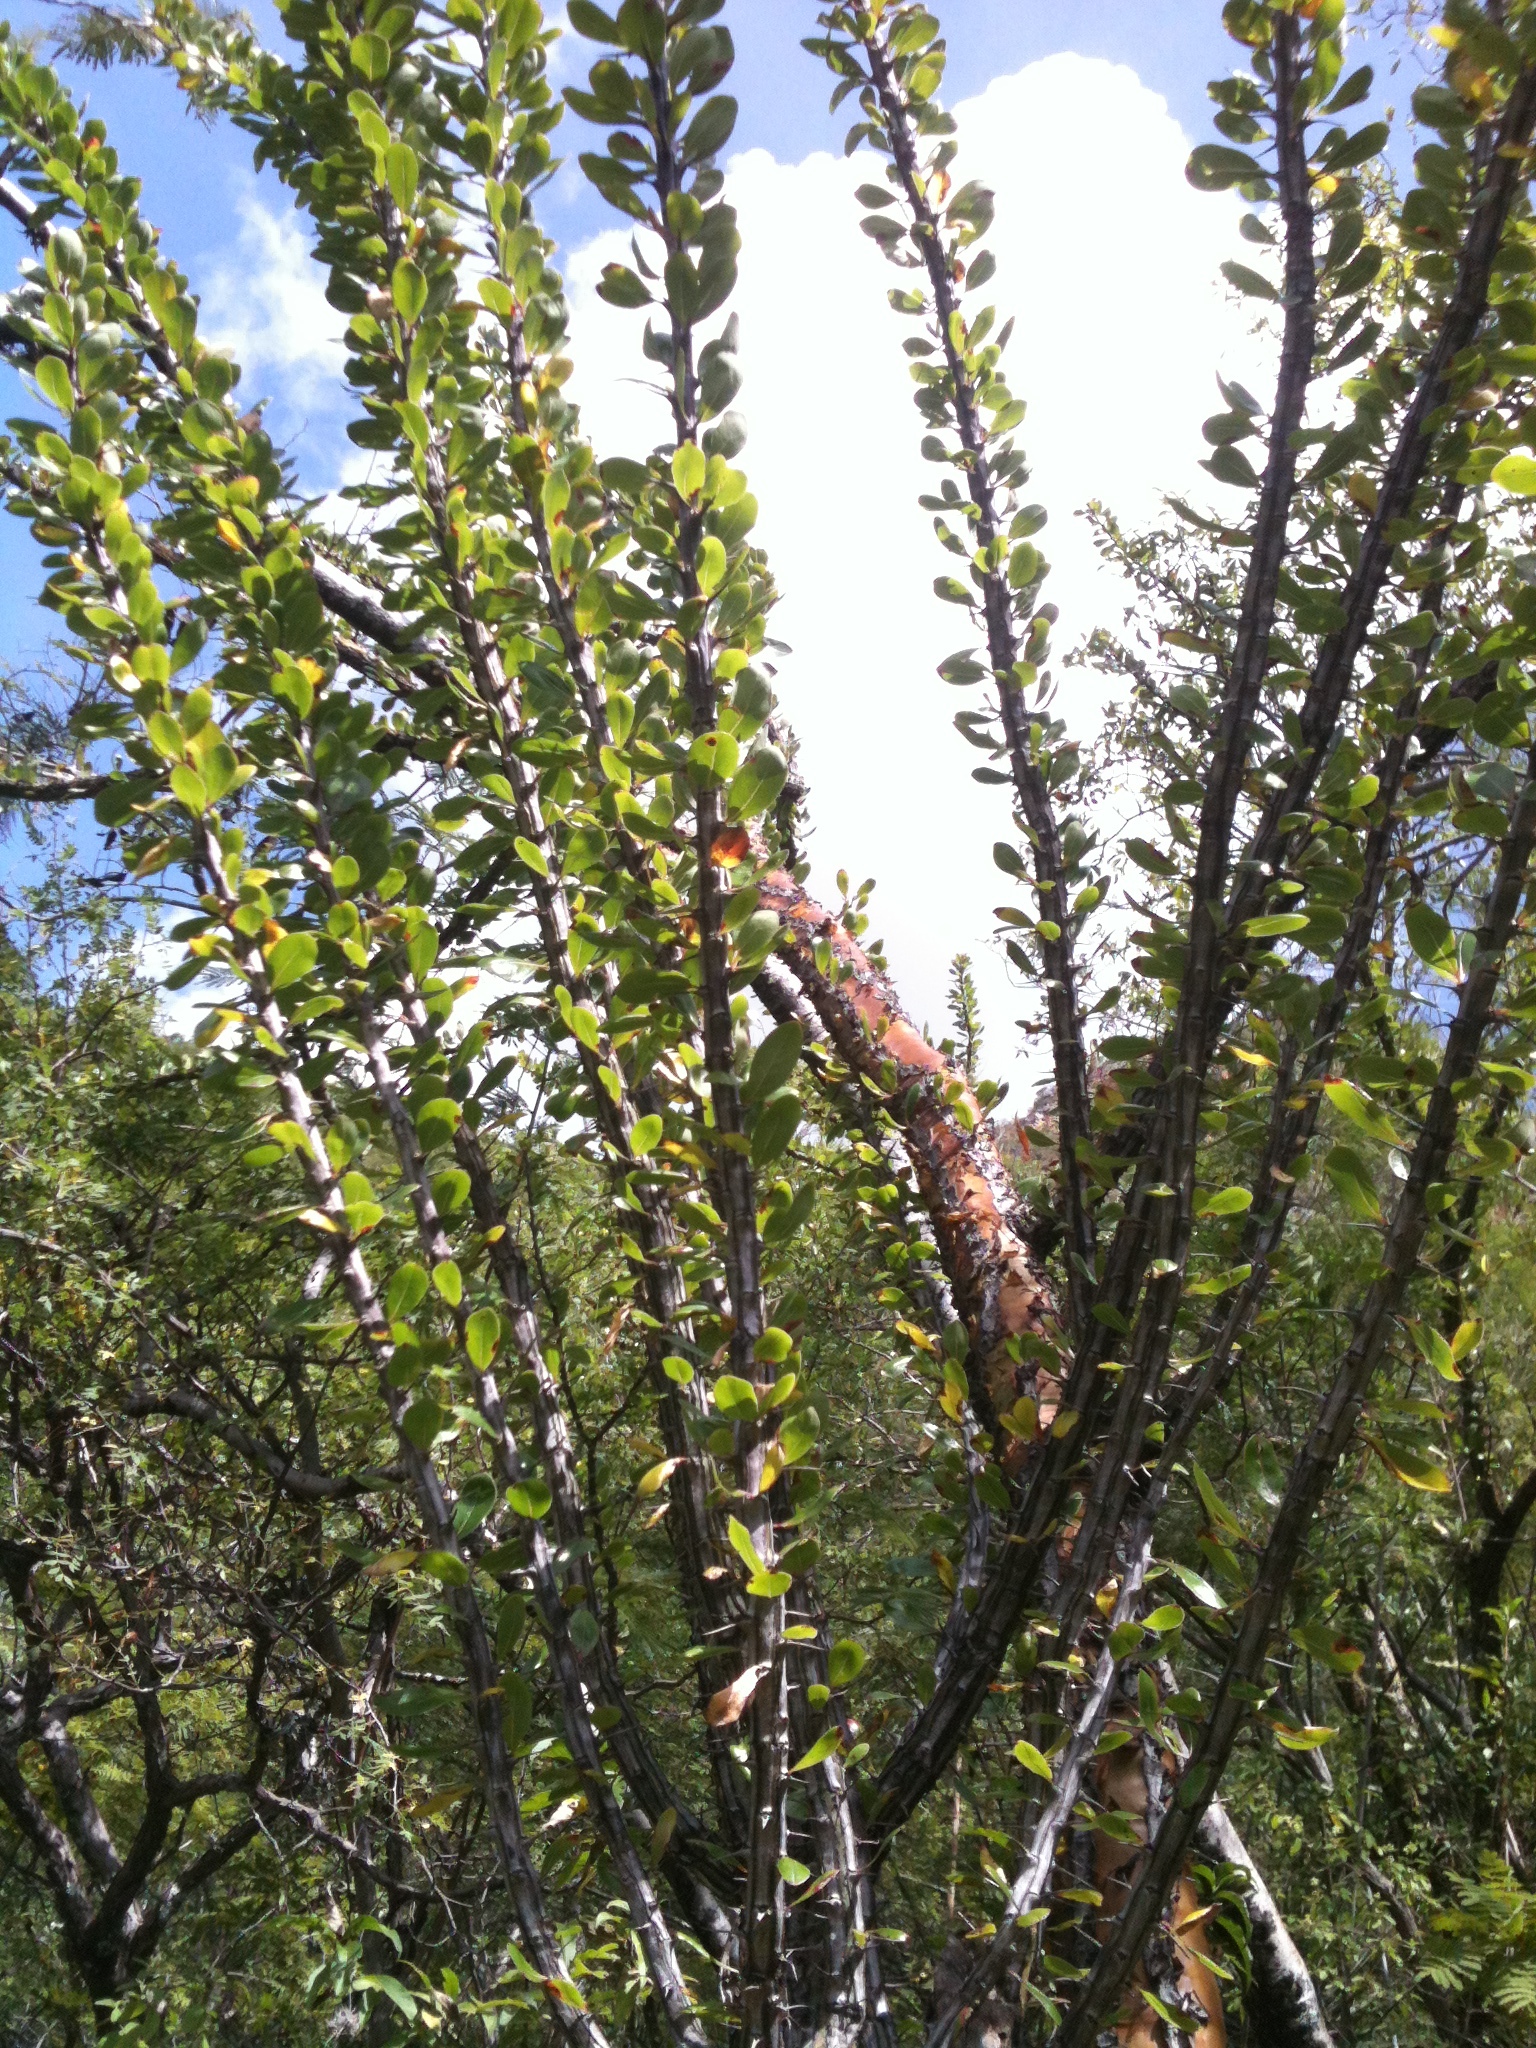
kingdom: Plantae
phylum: Tracheophyta
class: Magnoliopsida
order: Ericales
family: Fouquieriaceae
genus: Fouquieria
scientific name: Fouquieria ochoterenae
